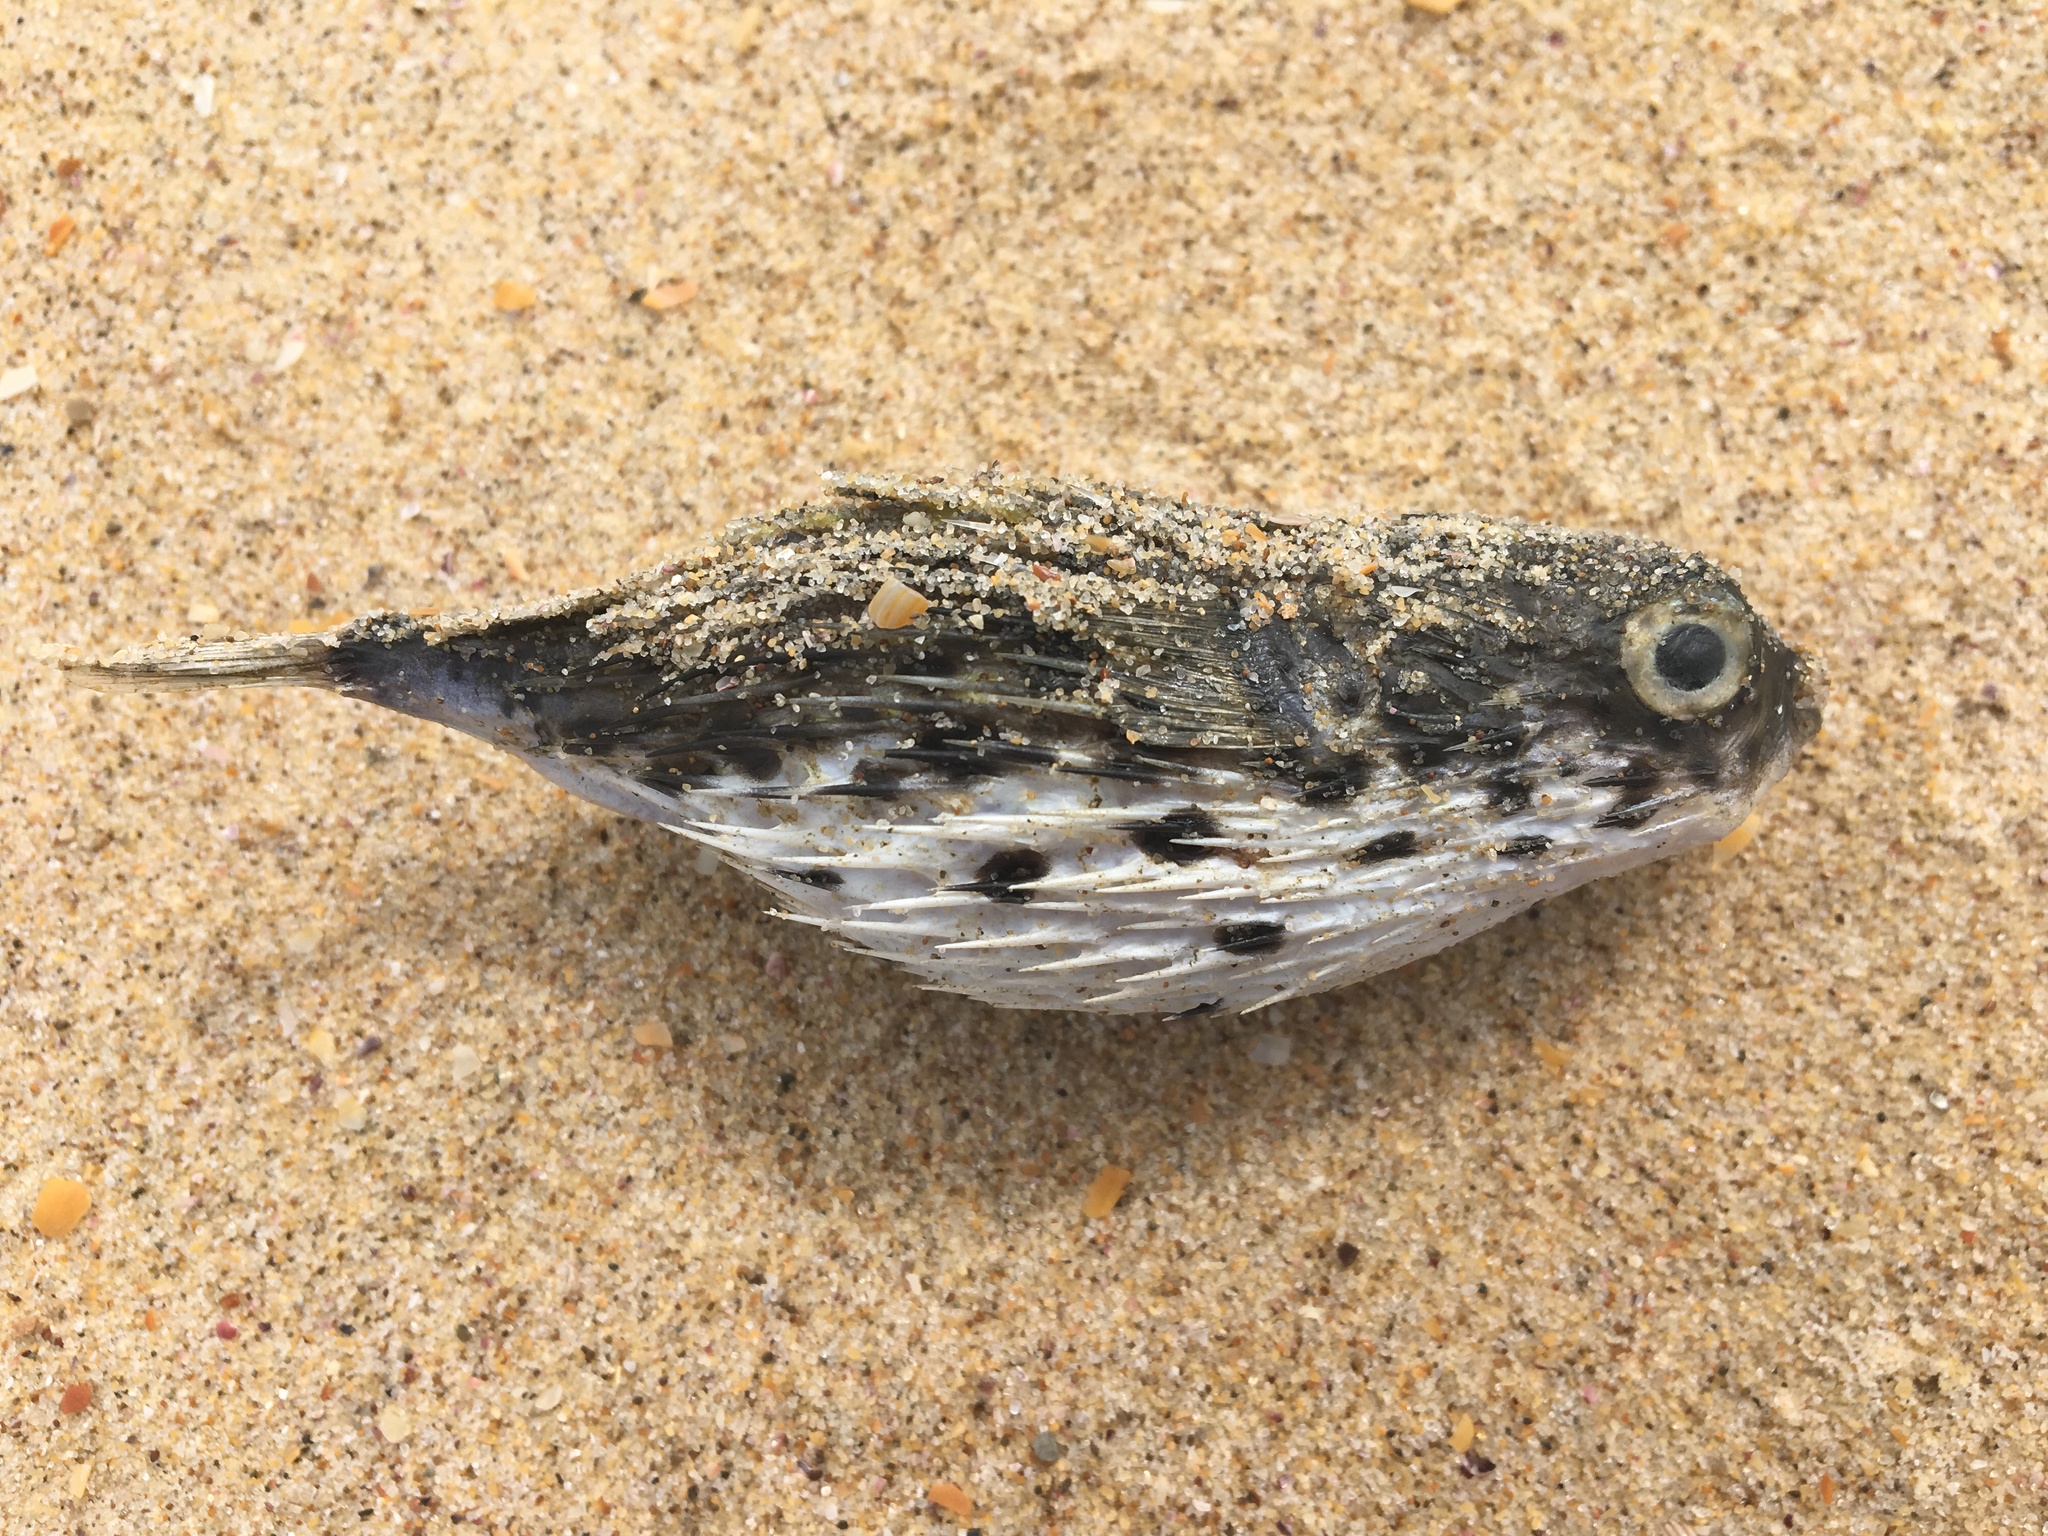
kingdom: Animalia
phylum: Chordata
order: Tetraodontiformes
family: Diodontidae
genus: Diodon
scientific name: Diodon holocanthus
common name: Balloonfish
